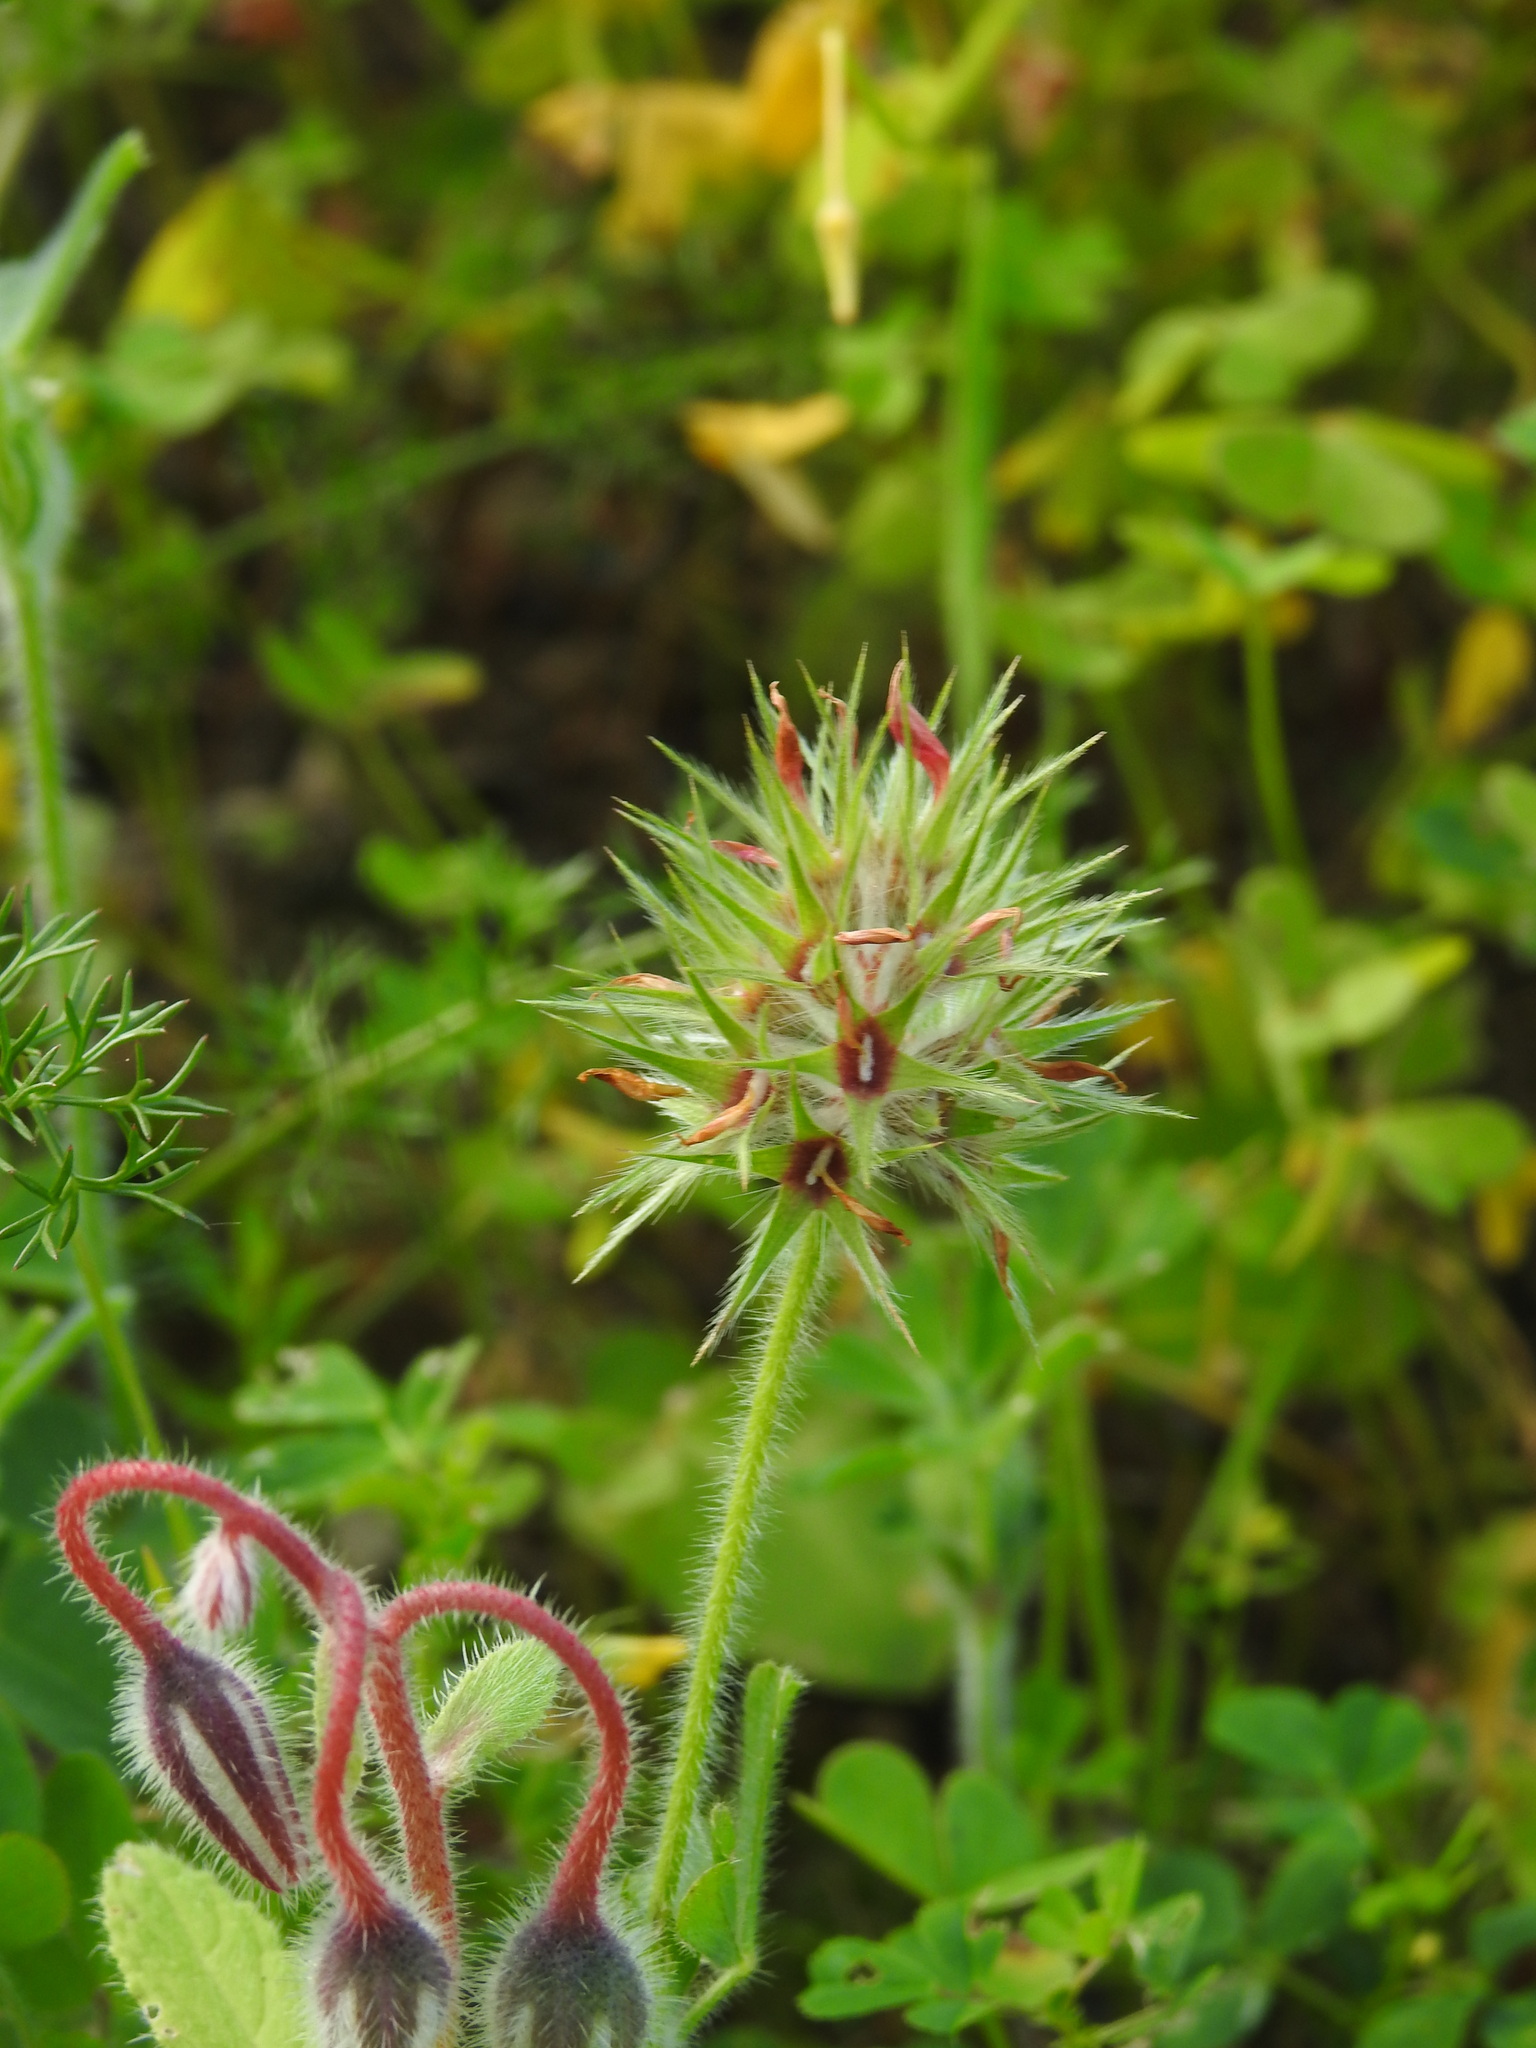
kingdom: Plantae
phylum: Tracheophyta
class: Magnoliopsida
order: Fabales
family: Fabaceae
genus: Trifolium
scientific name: Trifolium stellatum
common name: Starry clover
